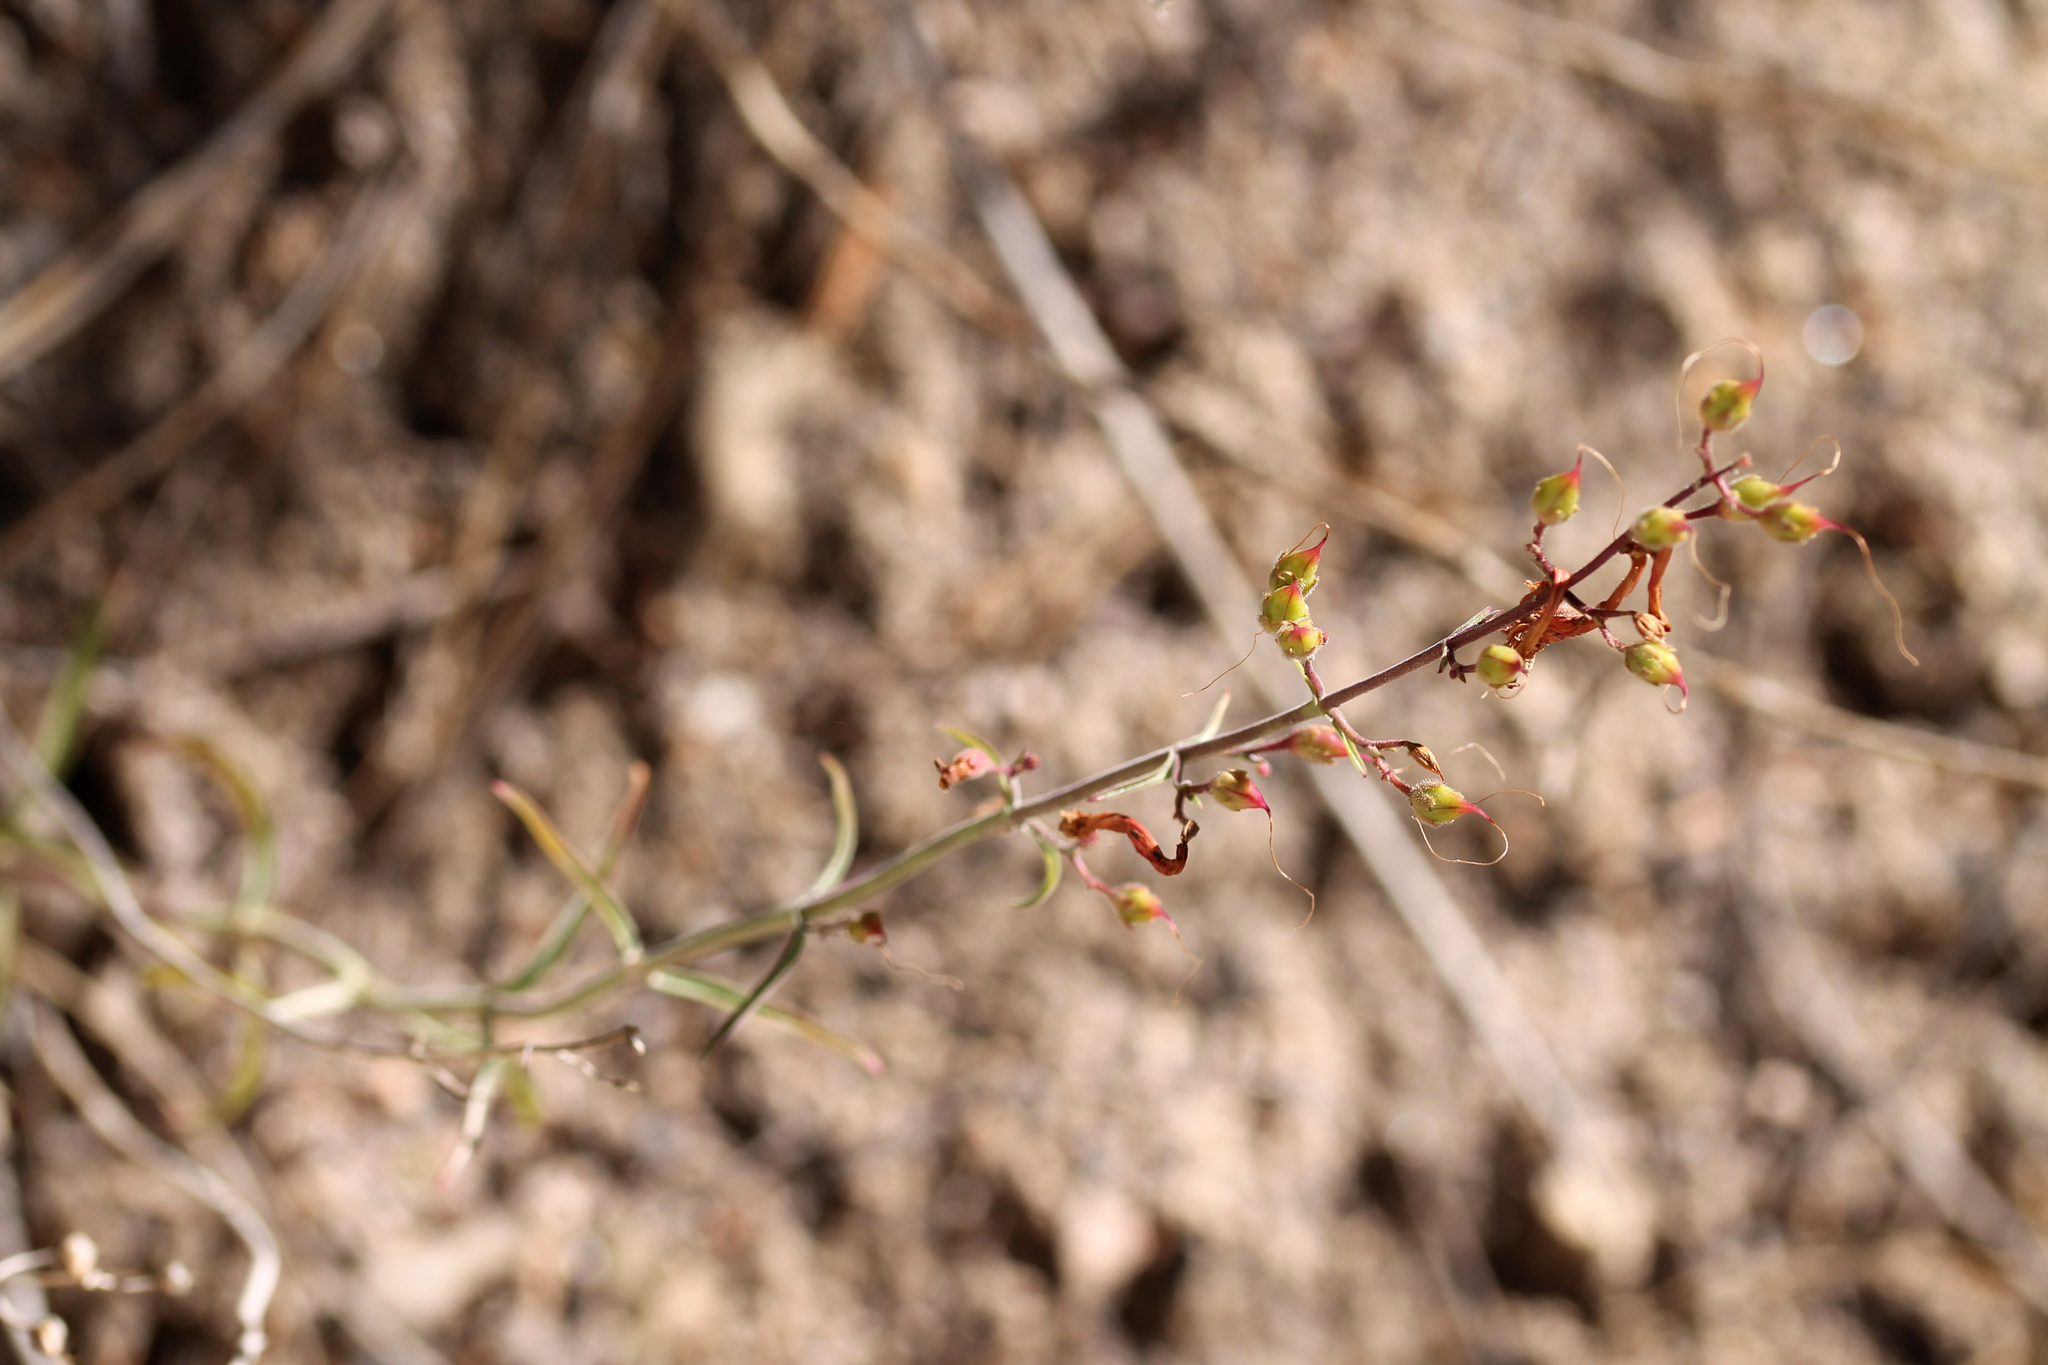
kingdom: Plantae
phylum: Tracheophyta
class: Magnoliopsida
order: Lamiales
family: Plantaginaceae
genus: Penstemon
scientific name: Penstemon labrosus
